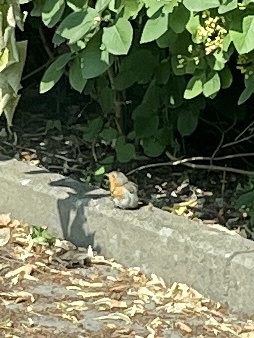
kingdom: Animalia
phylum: Chordata
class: Aves
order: Passeriformes
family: Muscicapidae
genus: Erithacus
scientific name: Erithacus rubecula
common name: European robin
